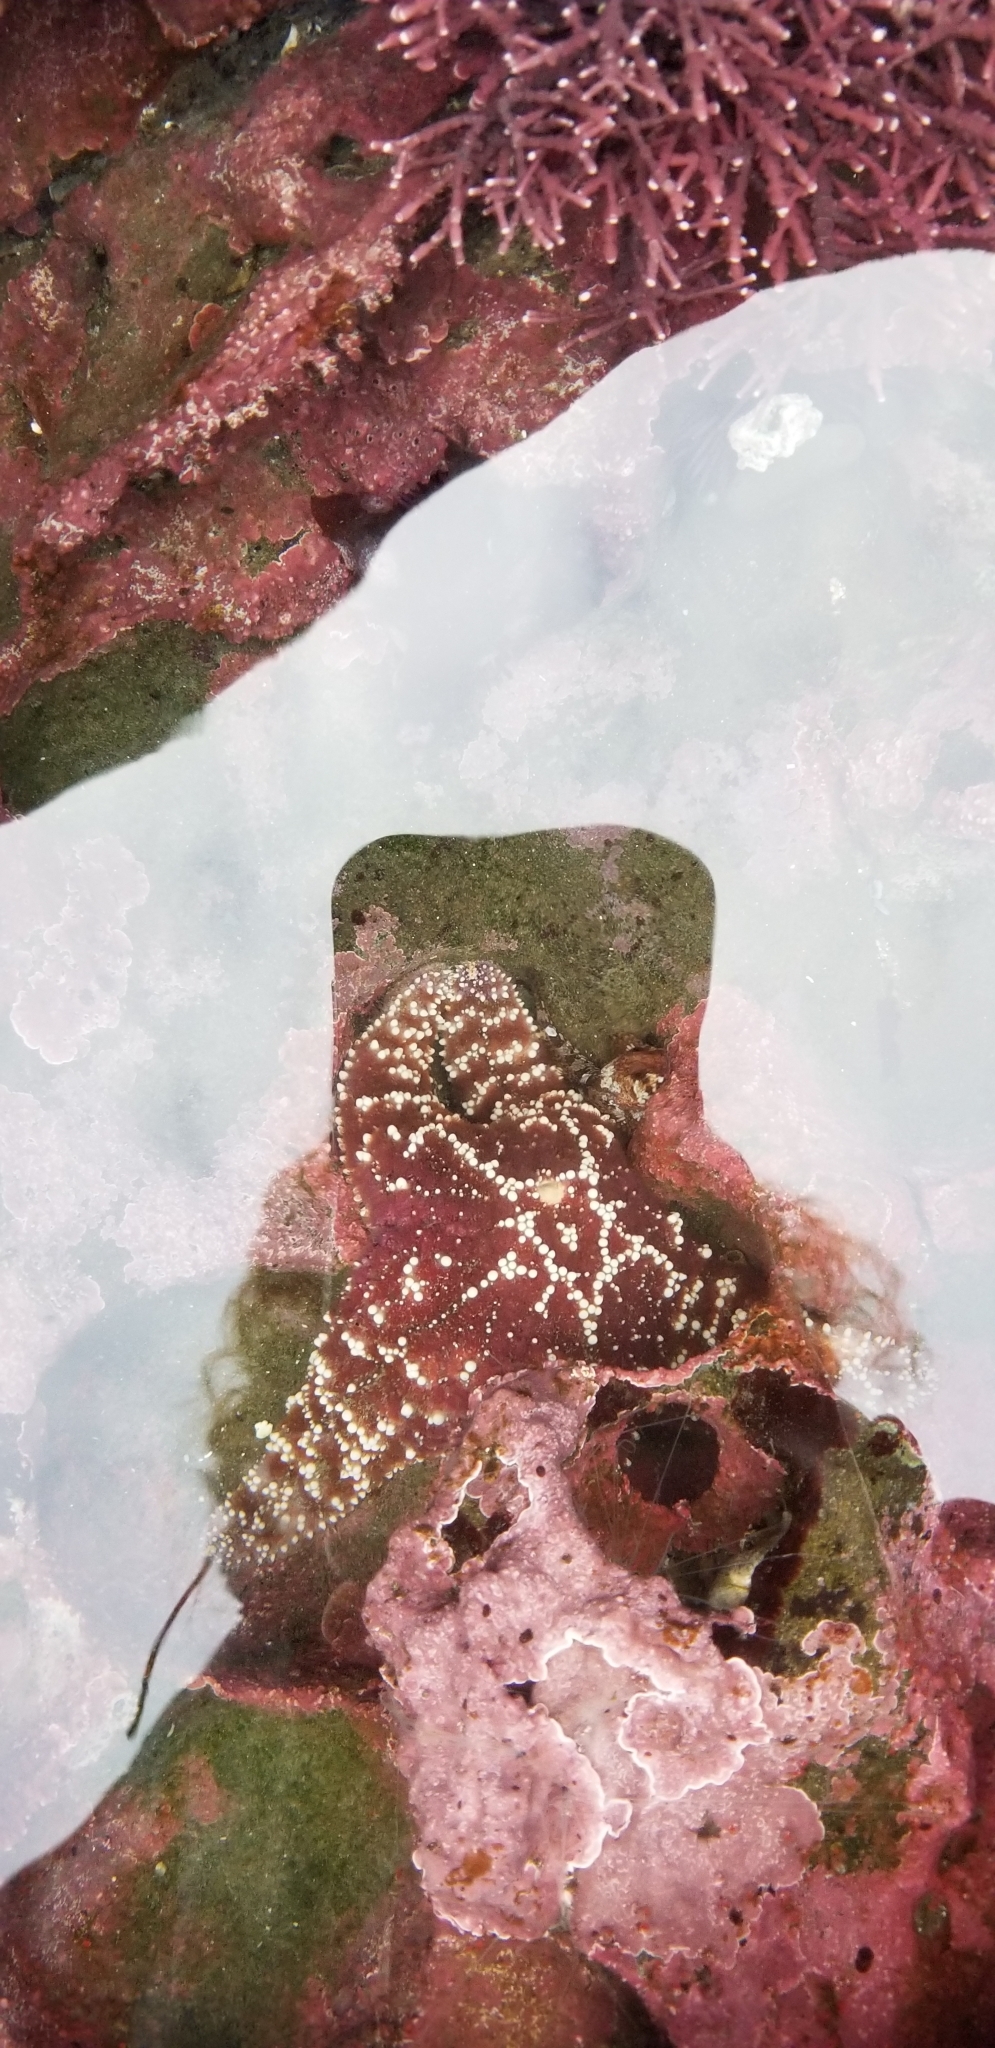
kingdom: Animalia
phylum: Echinodermata
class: Asteroidea
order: Forcipulatida
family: Asteriidae
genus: Pisaster
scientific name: Pisaster ochraceus
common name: Ochre stars
